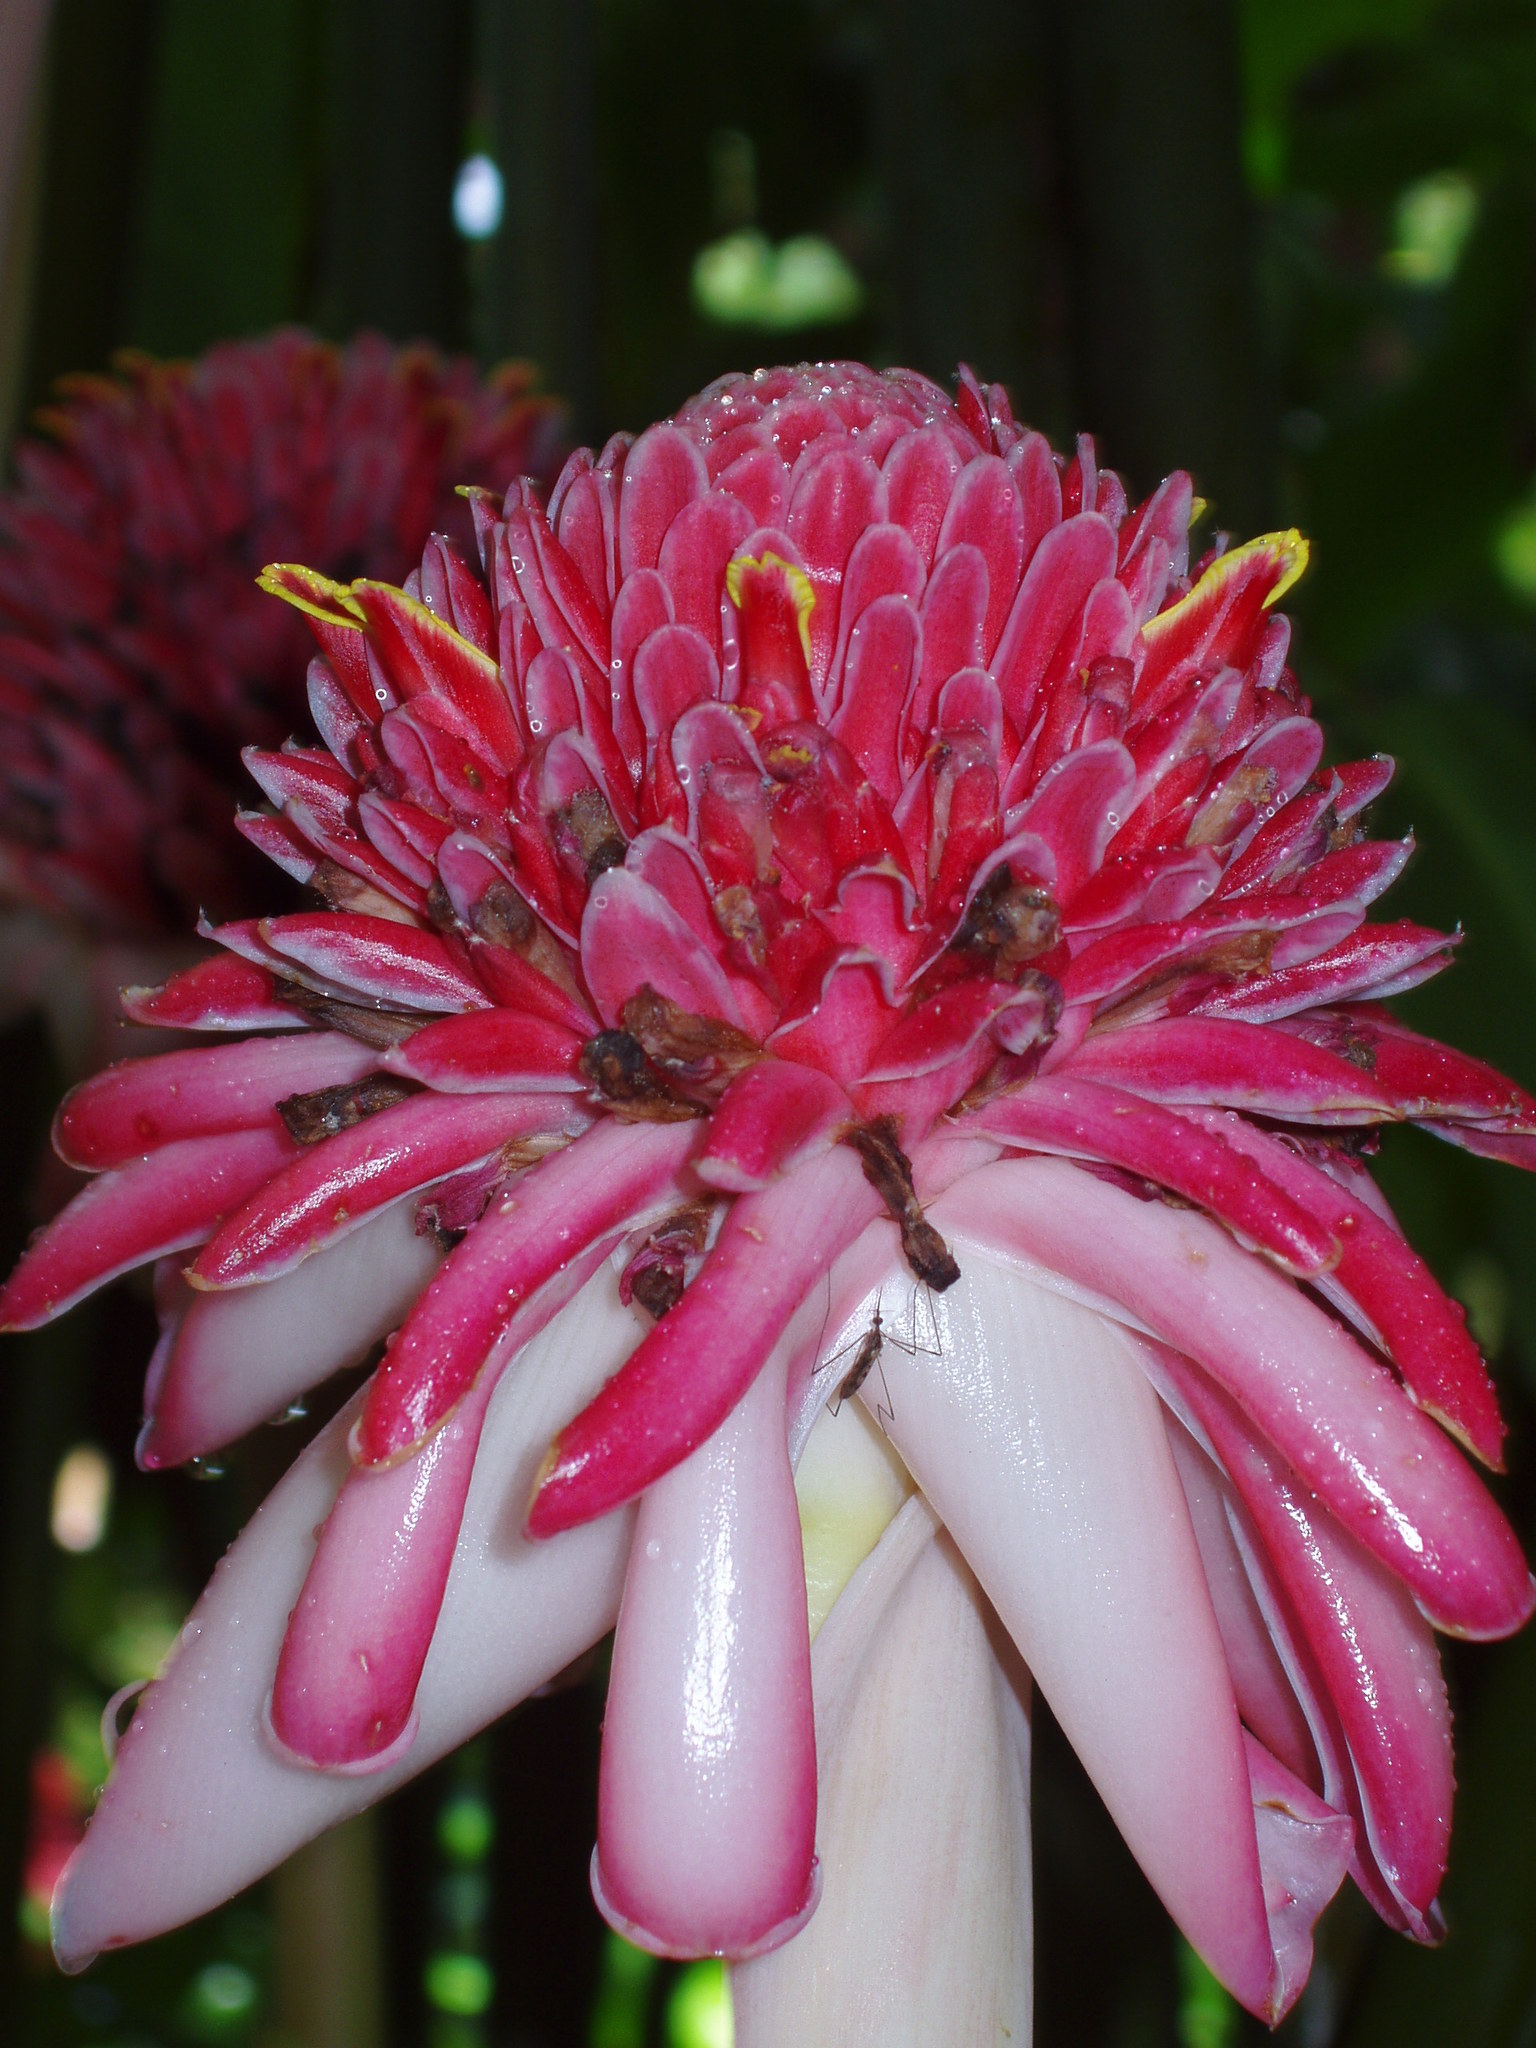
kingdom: Plantae
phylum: Tracheophyta
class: Liliopsida
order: Zingiberales
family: Zingiberaceae
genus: Etlingera
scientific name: Etlingera elatior
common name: Philippine waxflower
